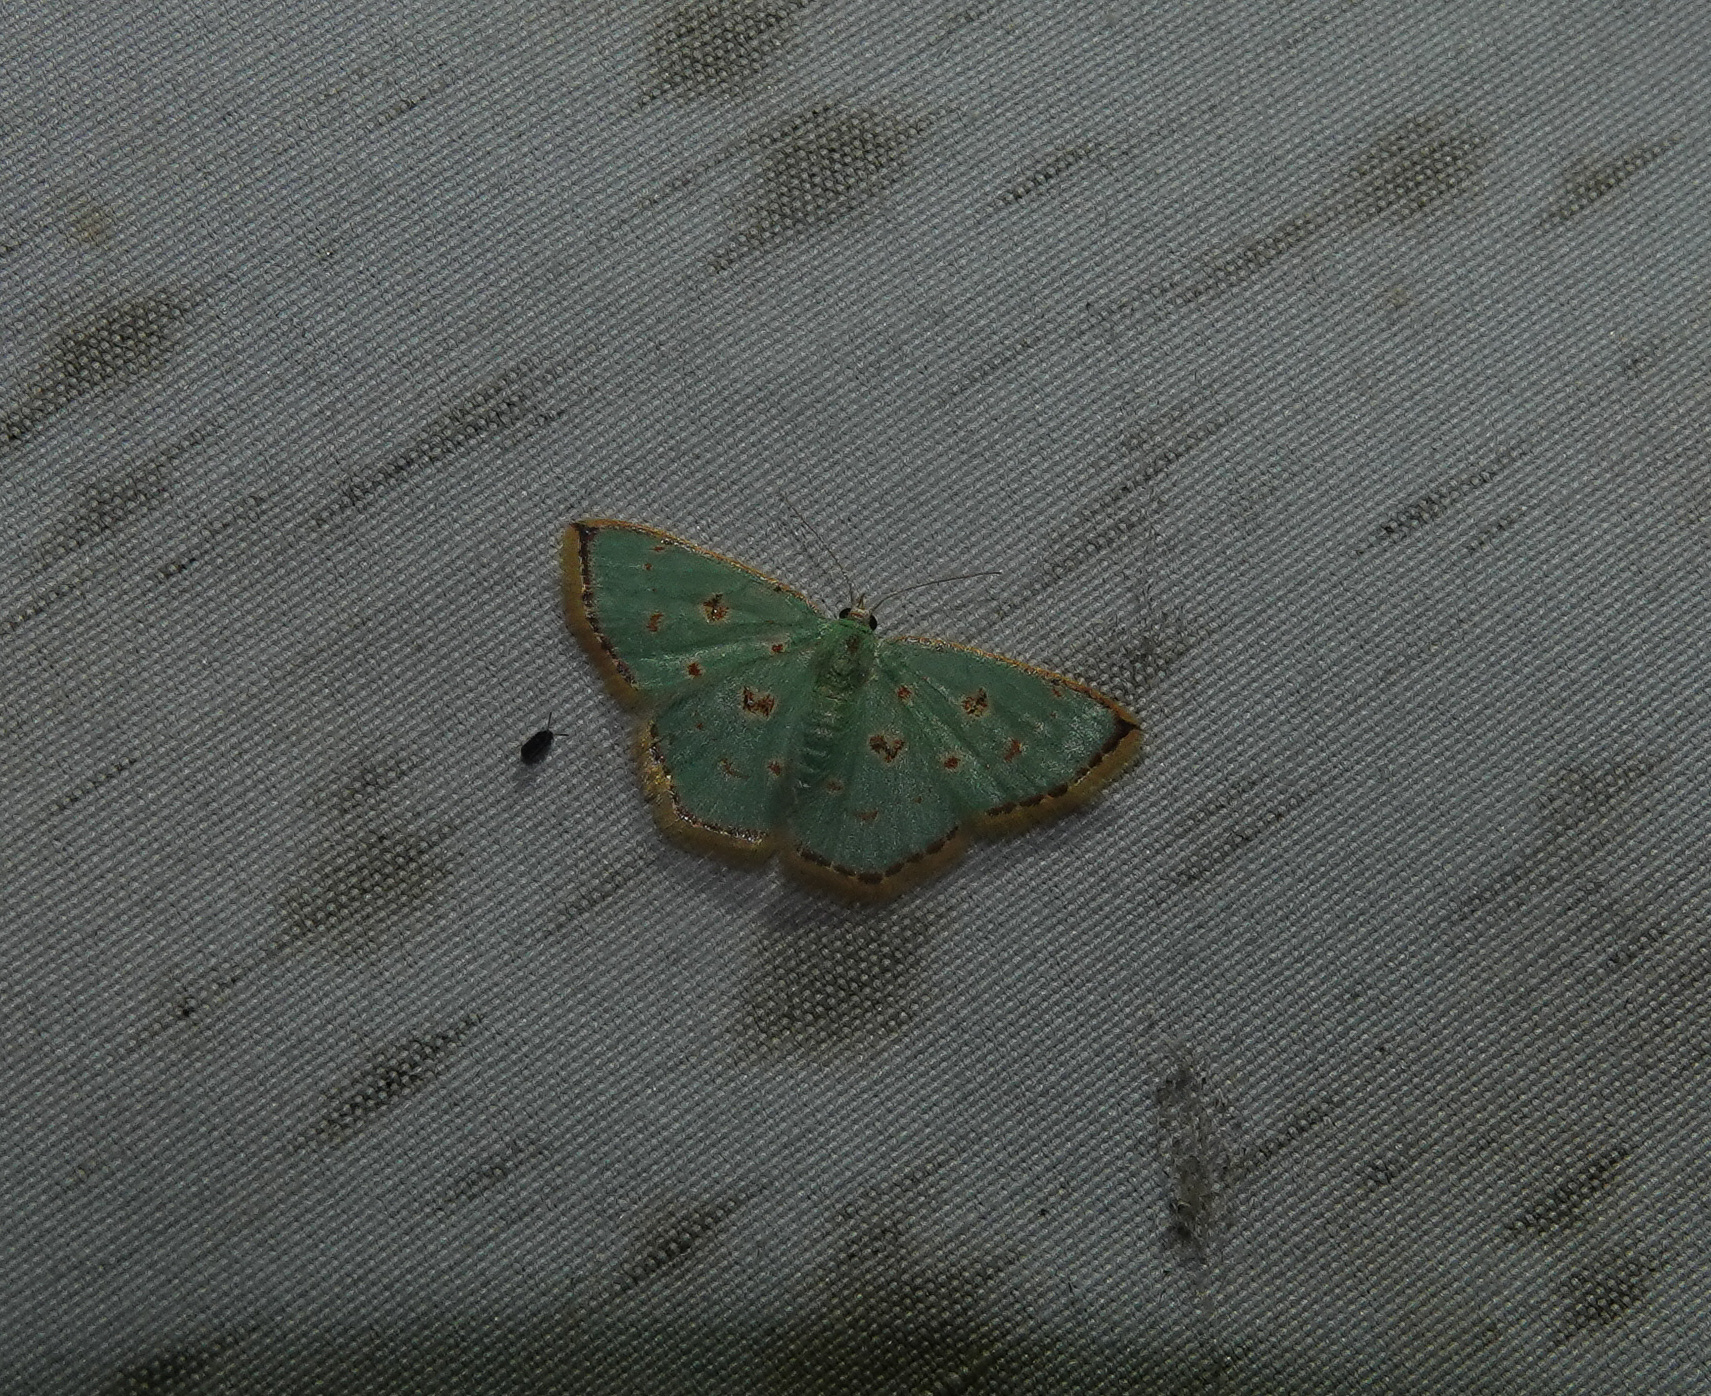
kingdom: Animalia
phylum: Arthropoda
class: Insecta
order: Lepidoptera
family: Geometridae
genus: Comostola
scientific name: Comostola laesaria
